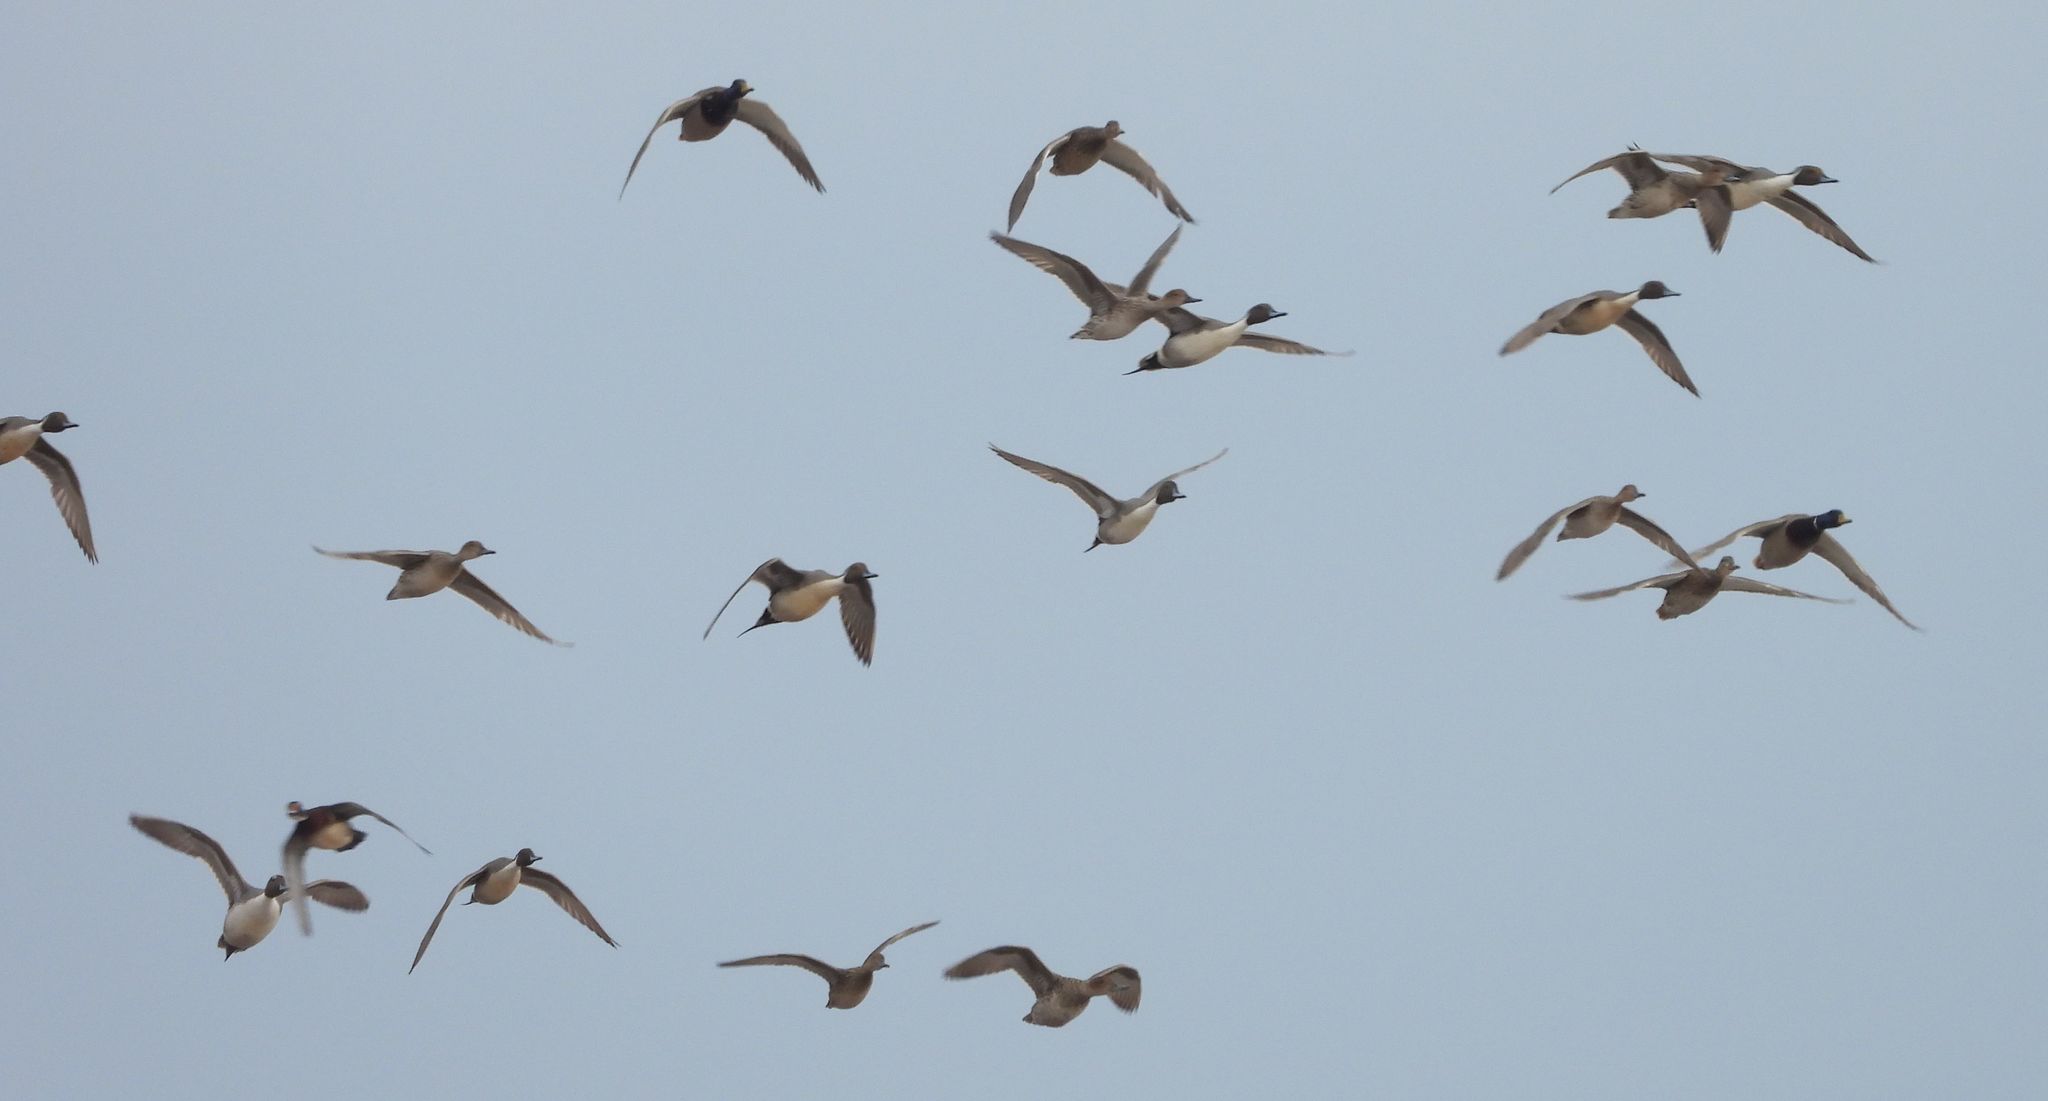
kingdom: Animalia
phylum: Chordata
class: Aves
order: Anseriformes
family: Anatidae
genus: Anas
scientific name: Anas acuta
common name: Northern pintail
